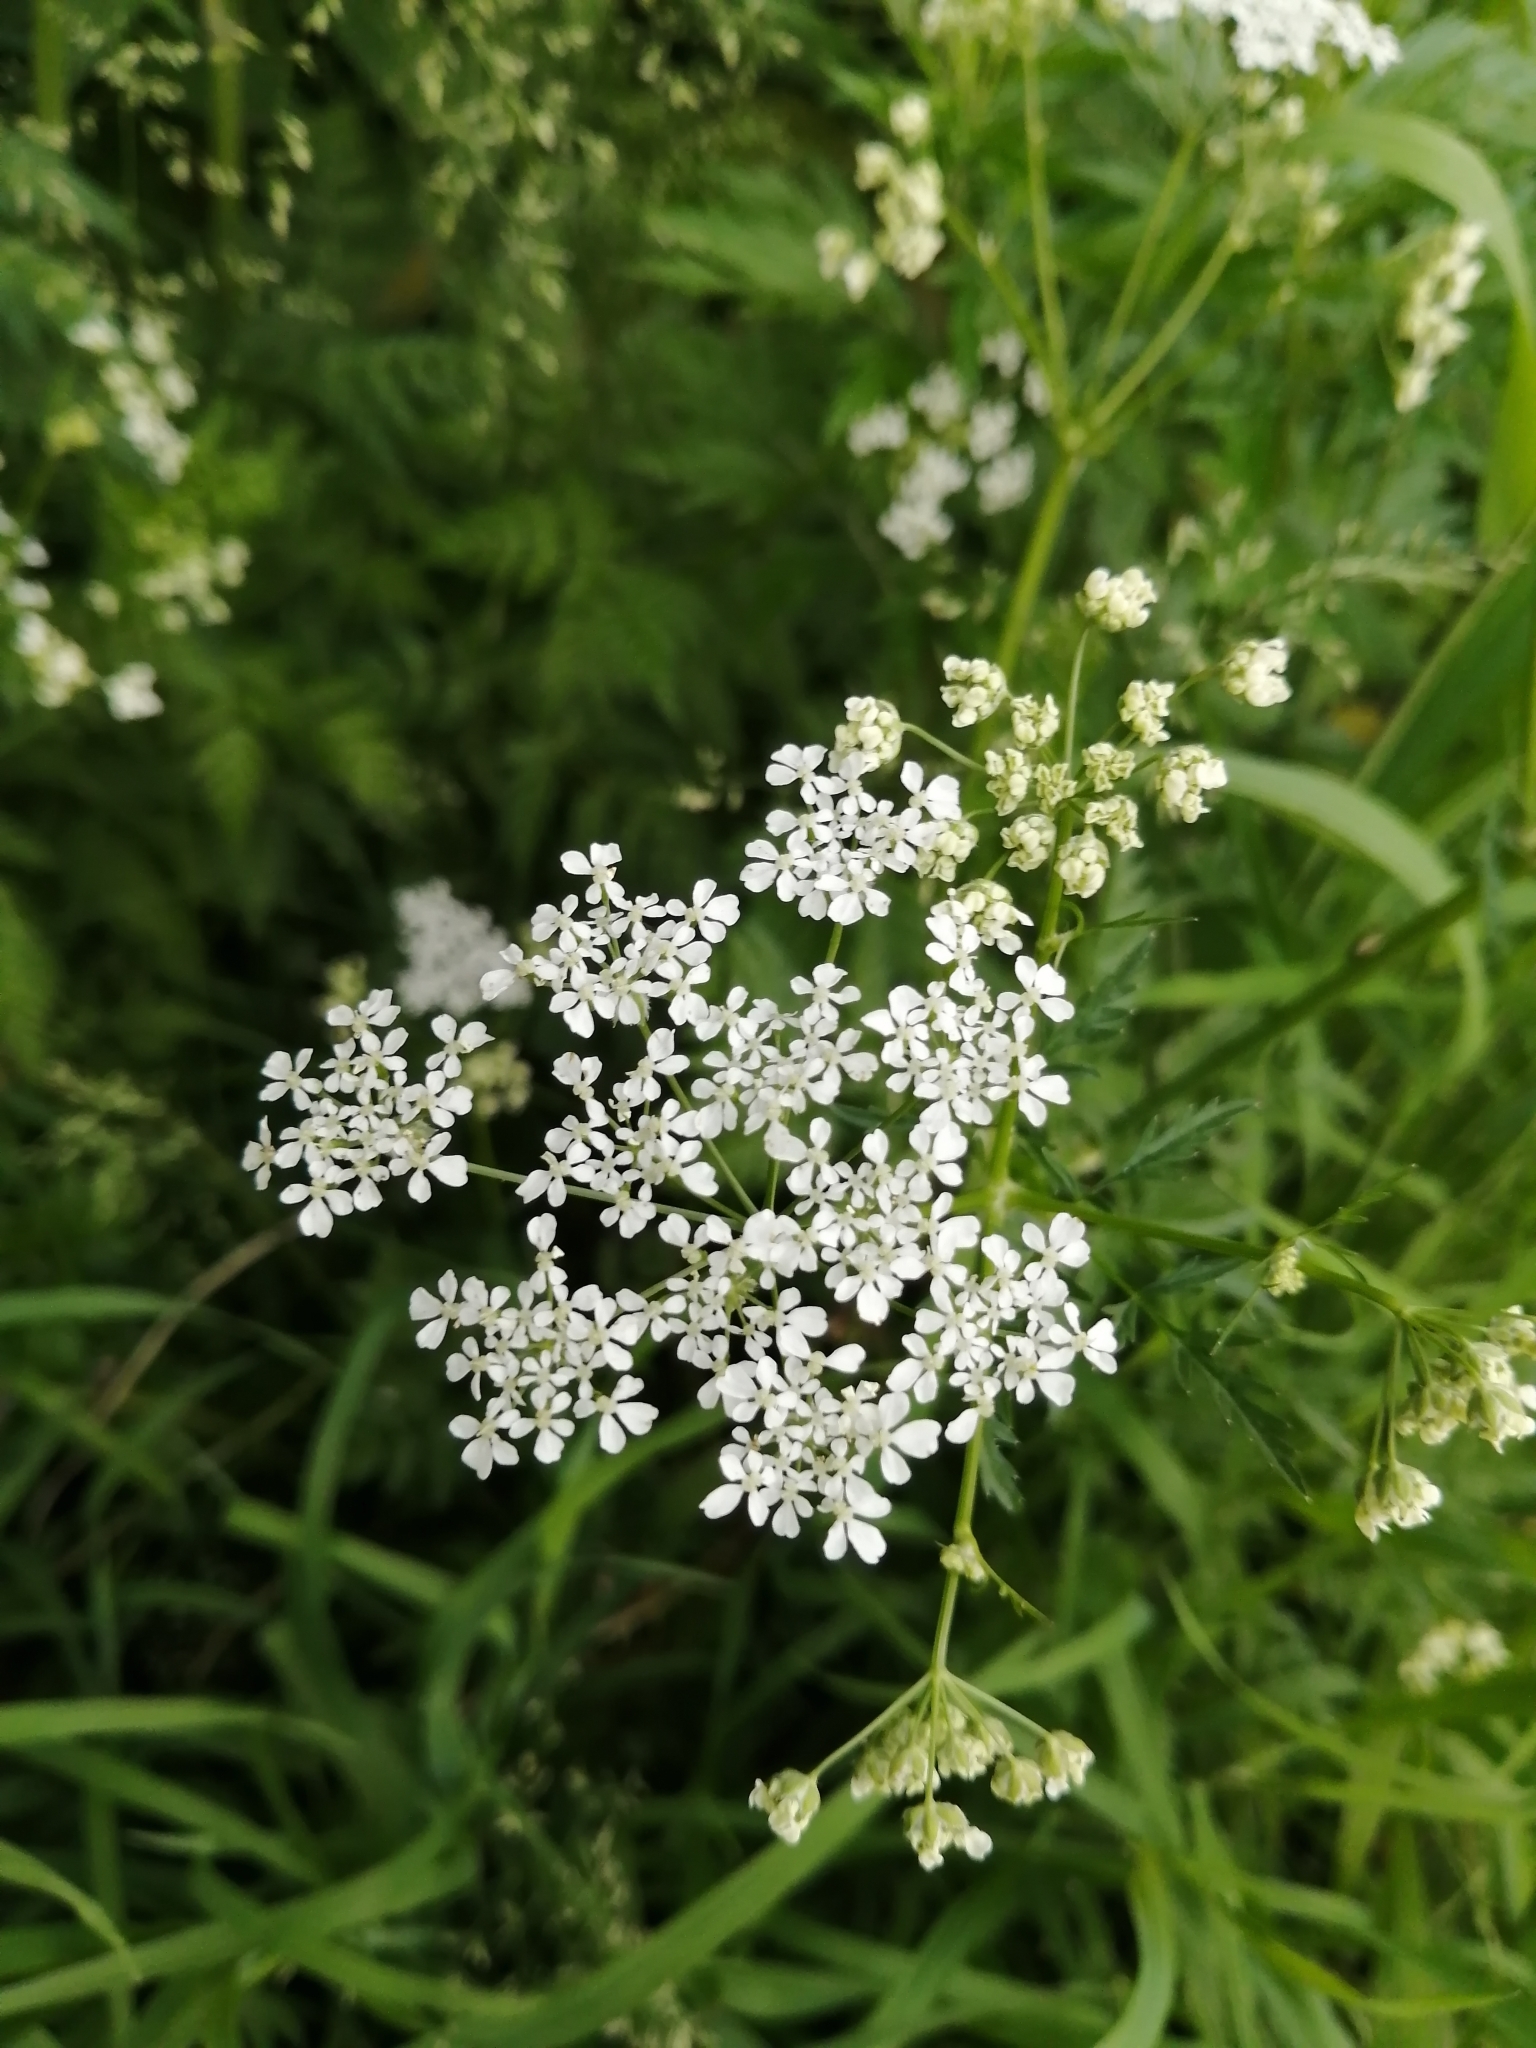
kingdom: Plantae
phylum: Tracheophyta
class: Magnoliopsida
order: Apiales
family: Apiaceae
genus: Anthriscus
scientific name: Anthriscus sylvestris
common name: Cow parsley
